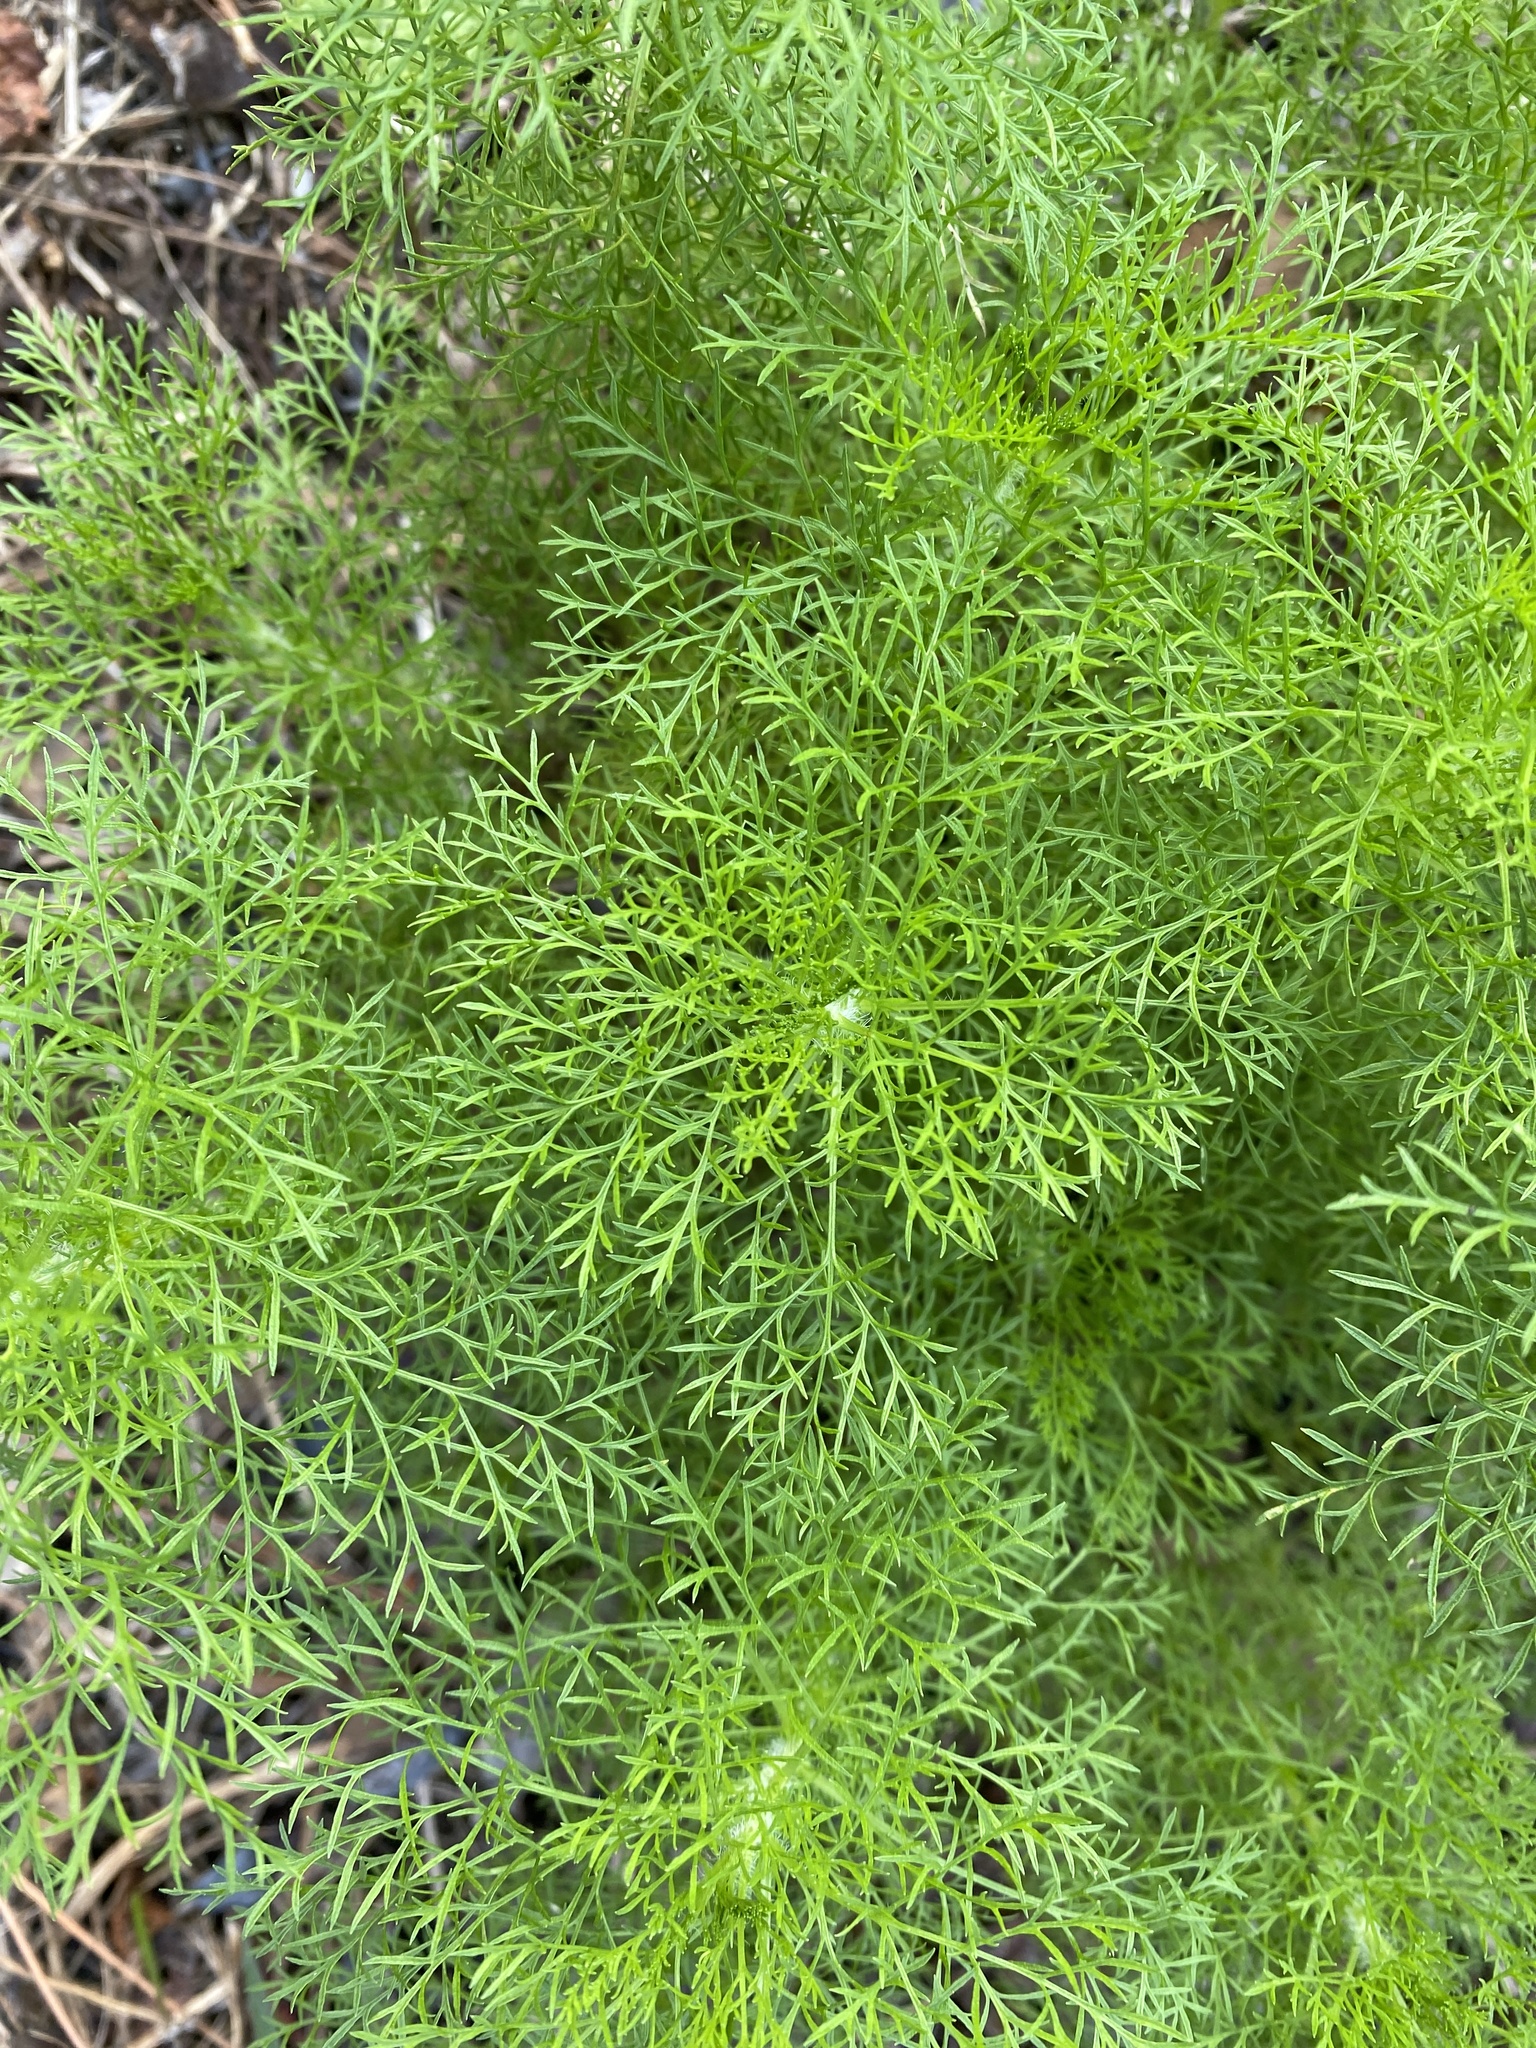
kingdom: Plantae
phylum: Tracheophyta
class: Magnoliopsida
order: Asterales
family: Asteraceae
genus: Eupatorium
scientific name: Eupatorium capillifolium
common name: Dog-fennel
